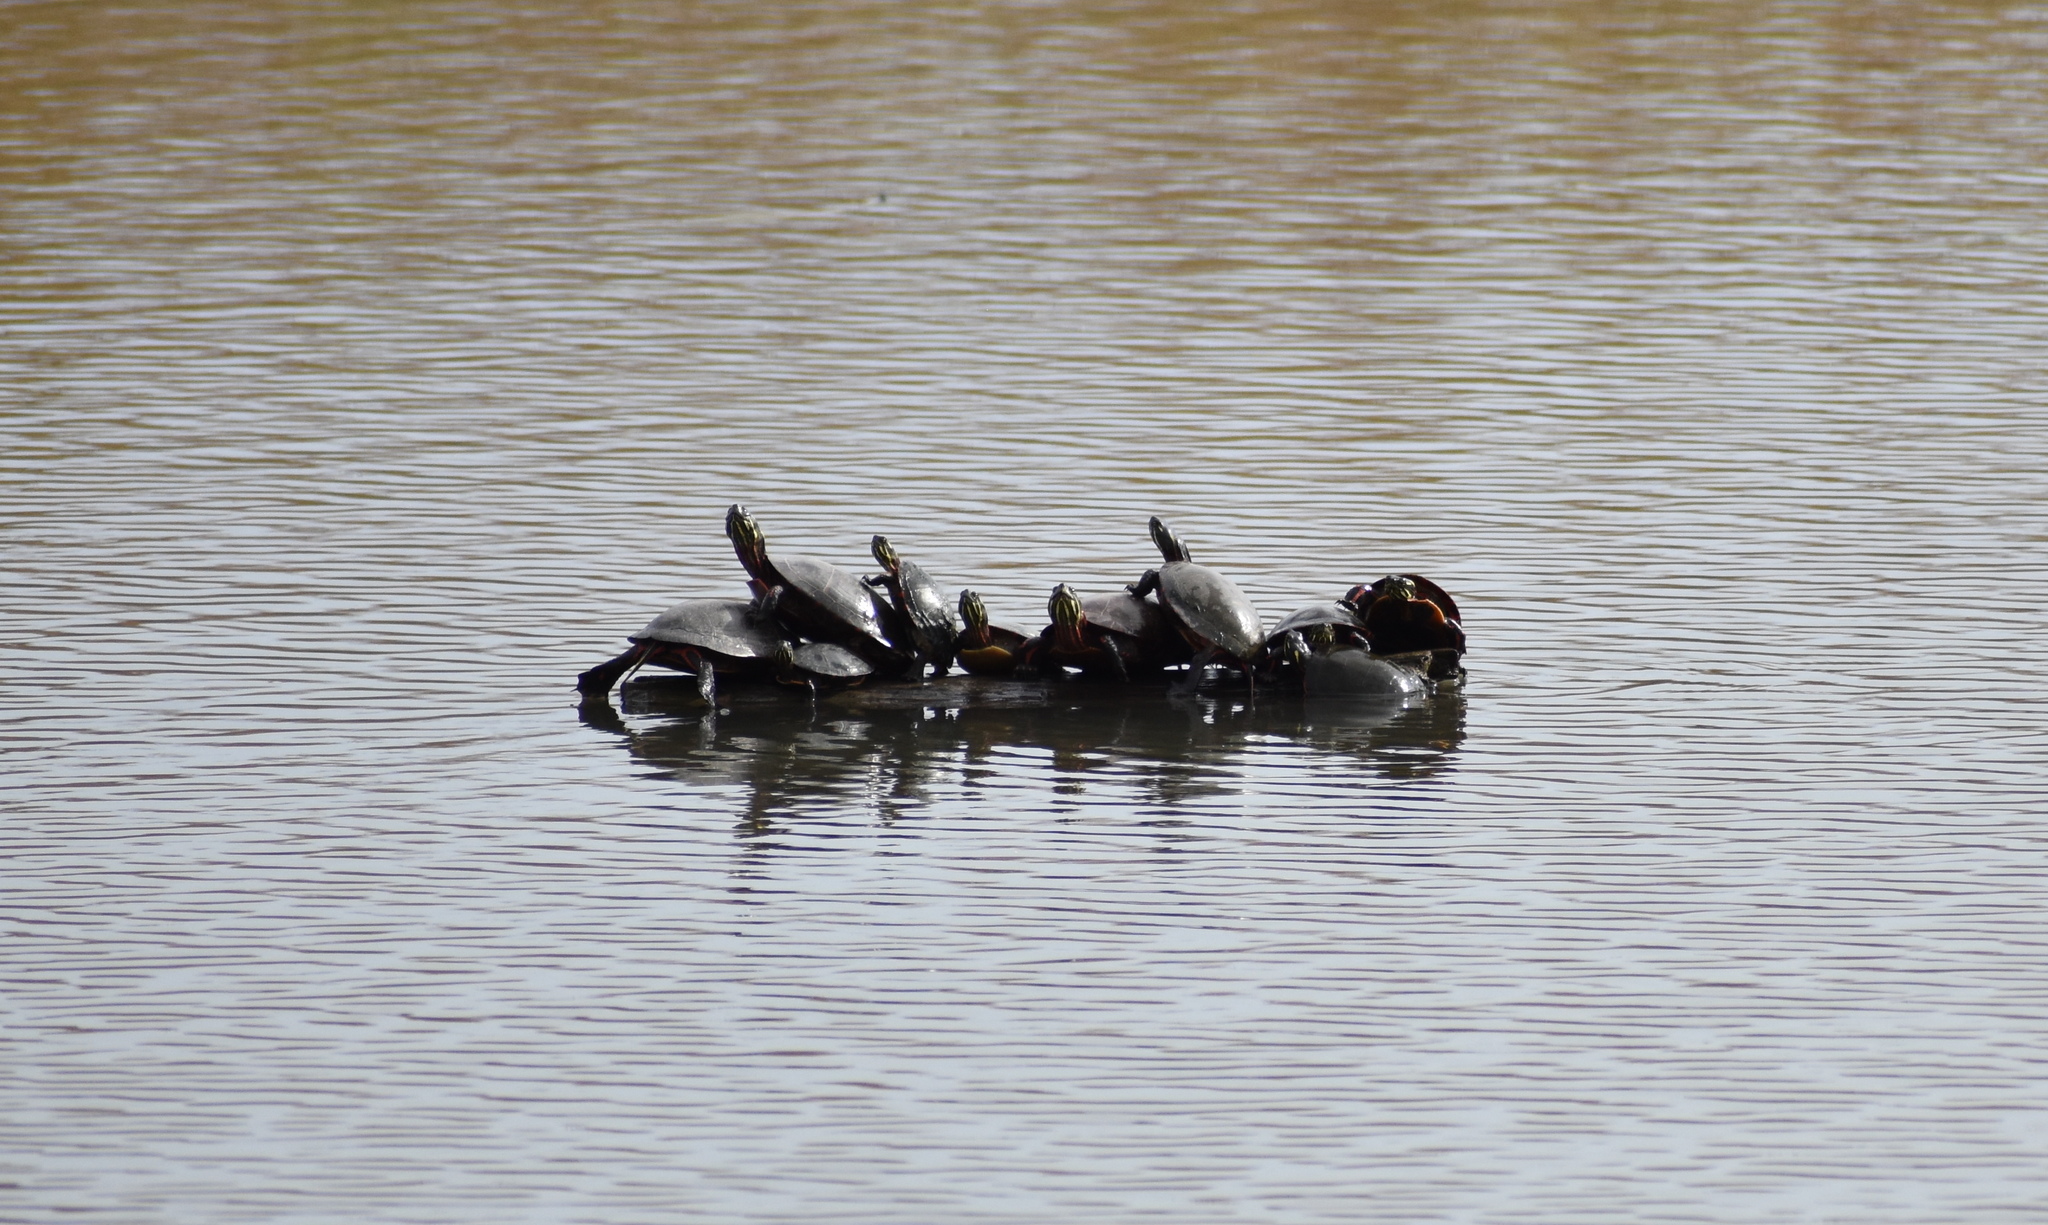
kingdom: Animalia
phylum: Chordata
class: Testudines
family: Emydidae
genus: Chrysemys
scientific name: Chrysemys picta
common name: Painted turtle
